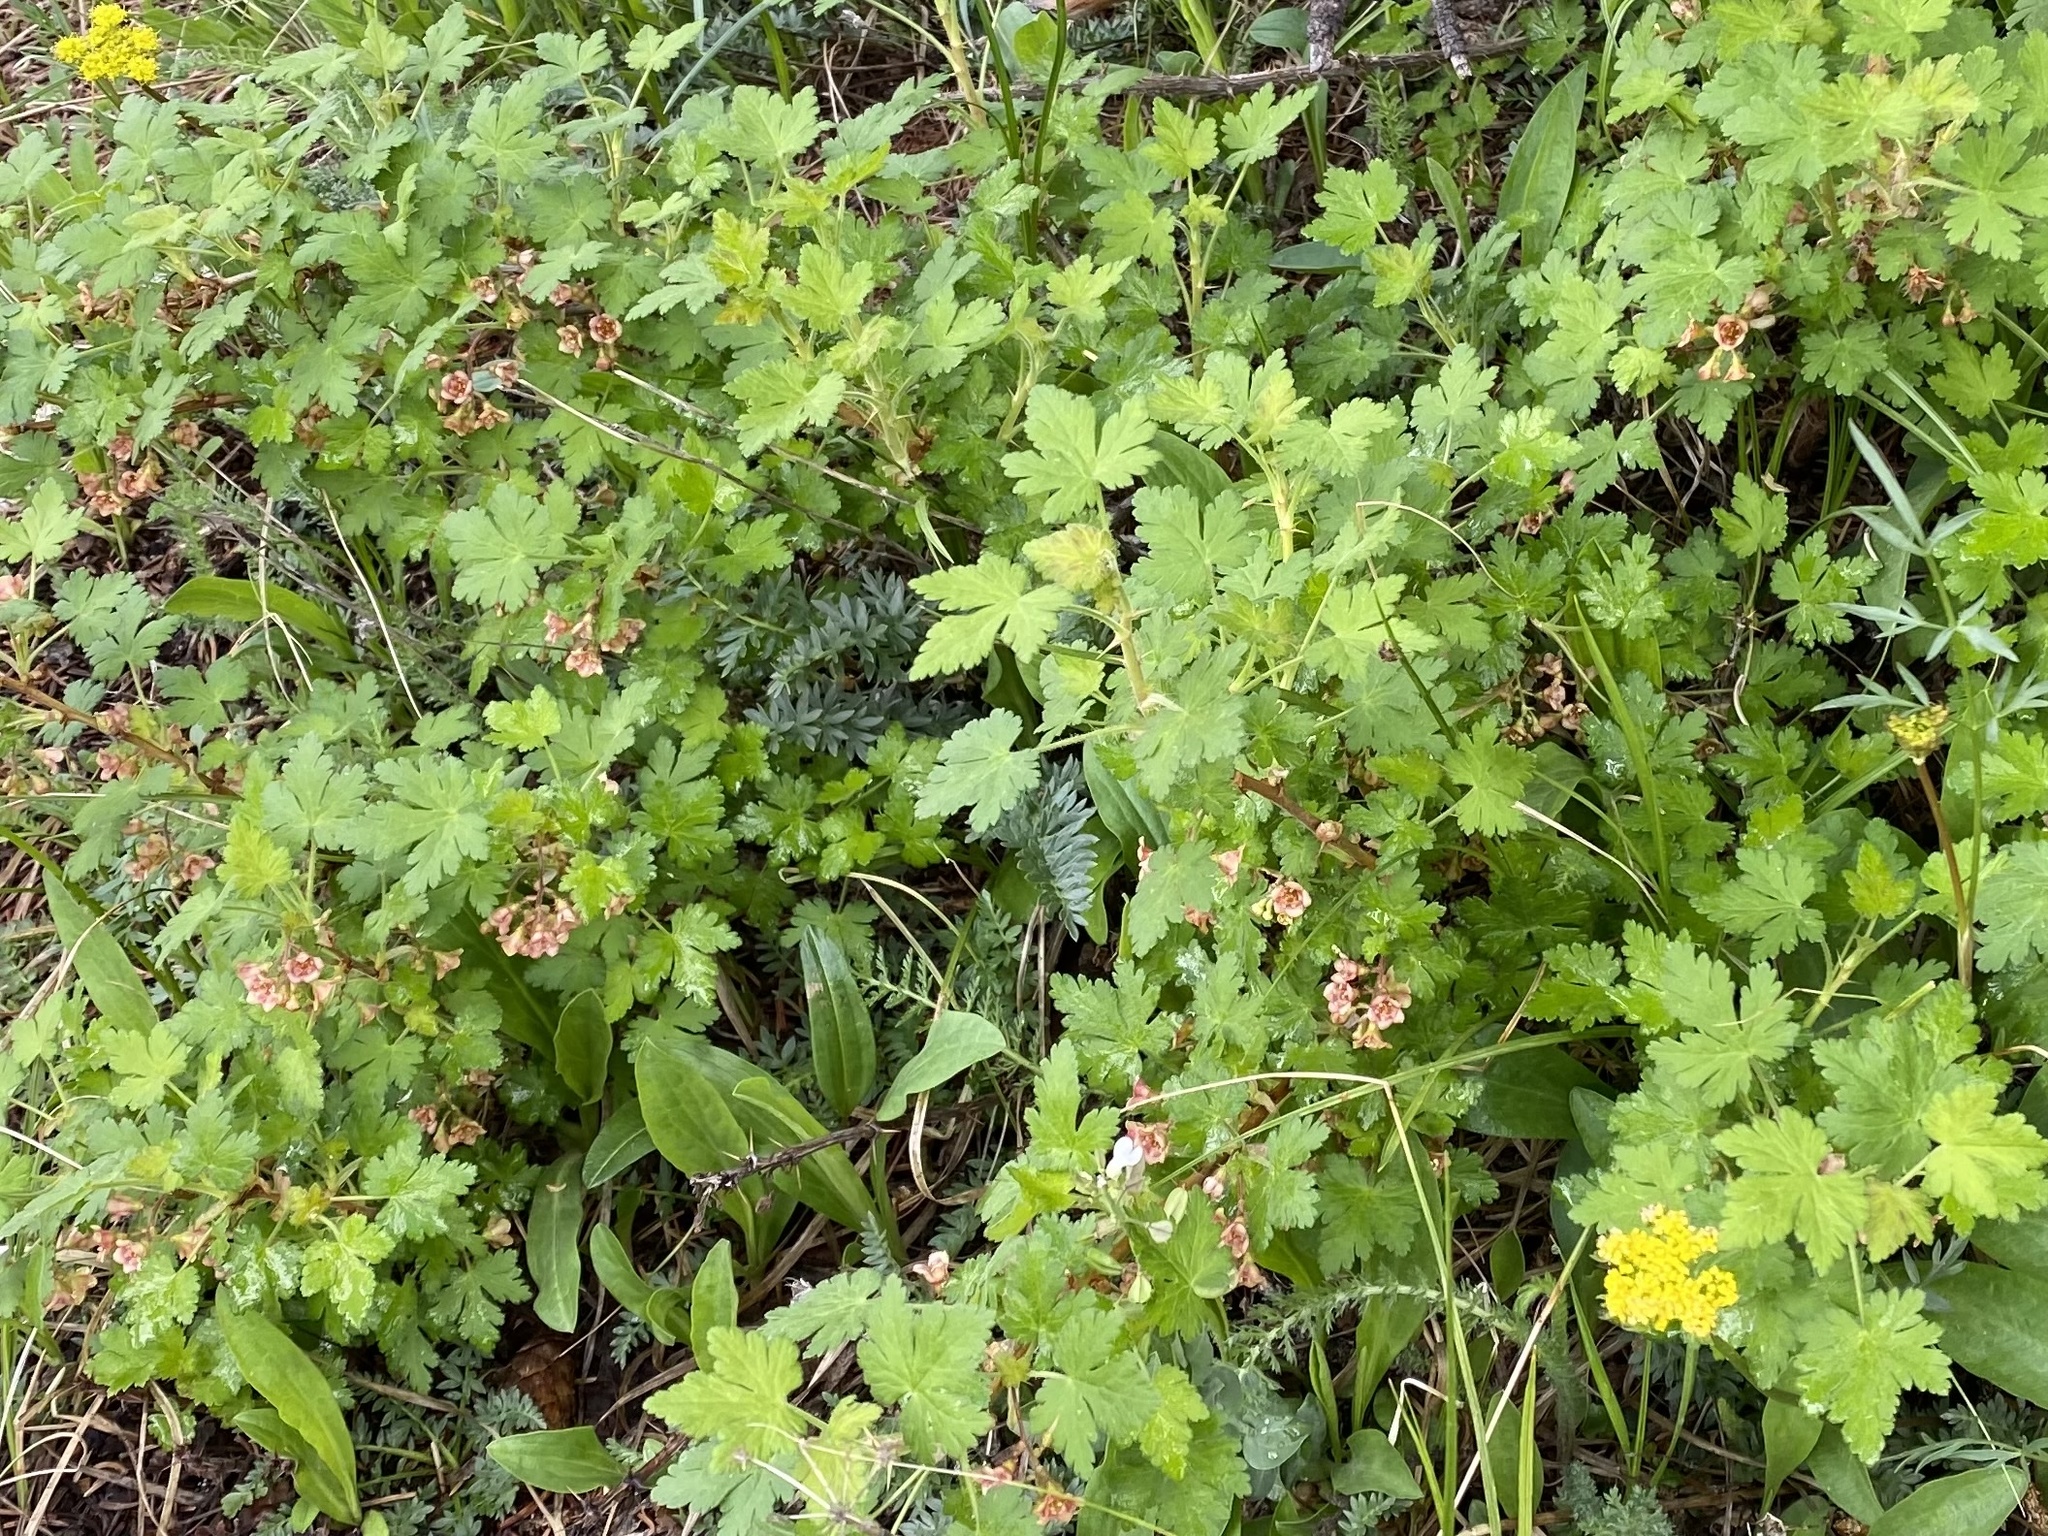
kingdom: Plantae
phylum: Tracheophyta
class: Magnoliopsida
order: Saxifragales
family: Grossulariaceae
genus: Ribes
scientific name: Ribes montigenum
